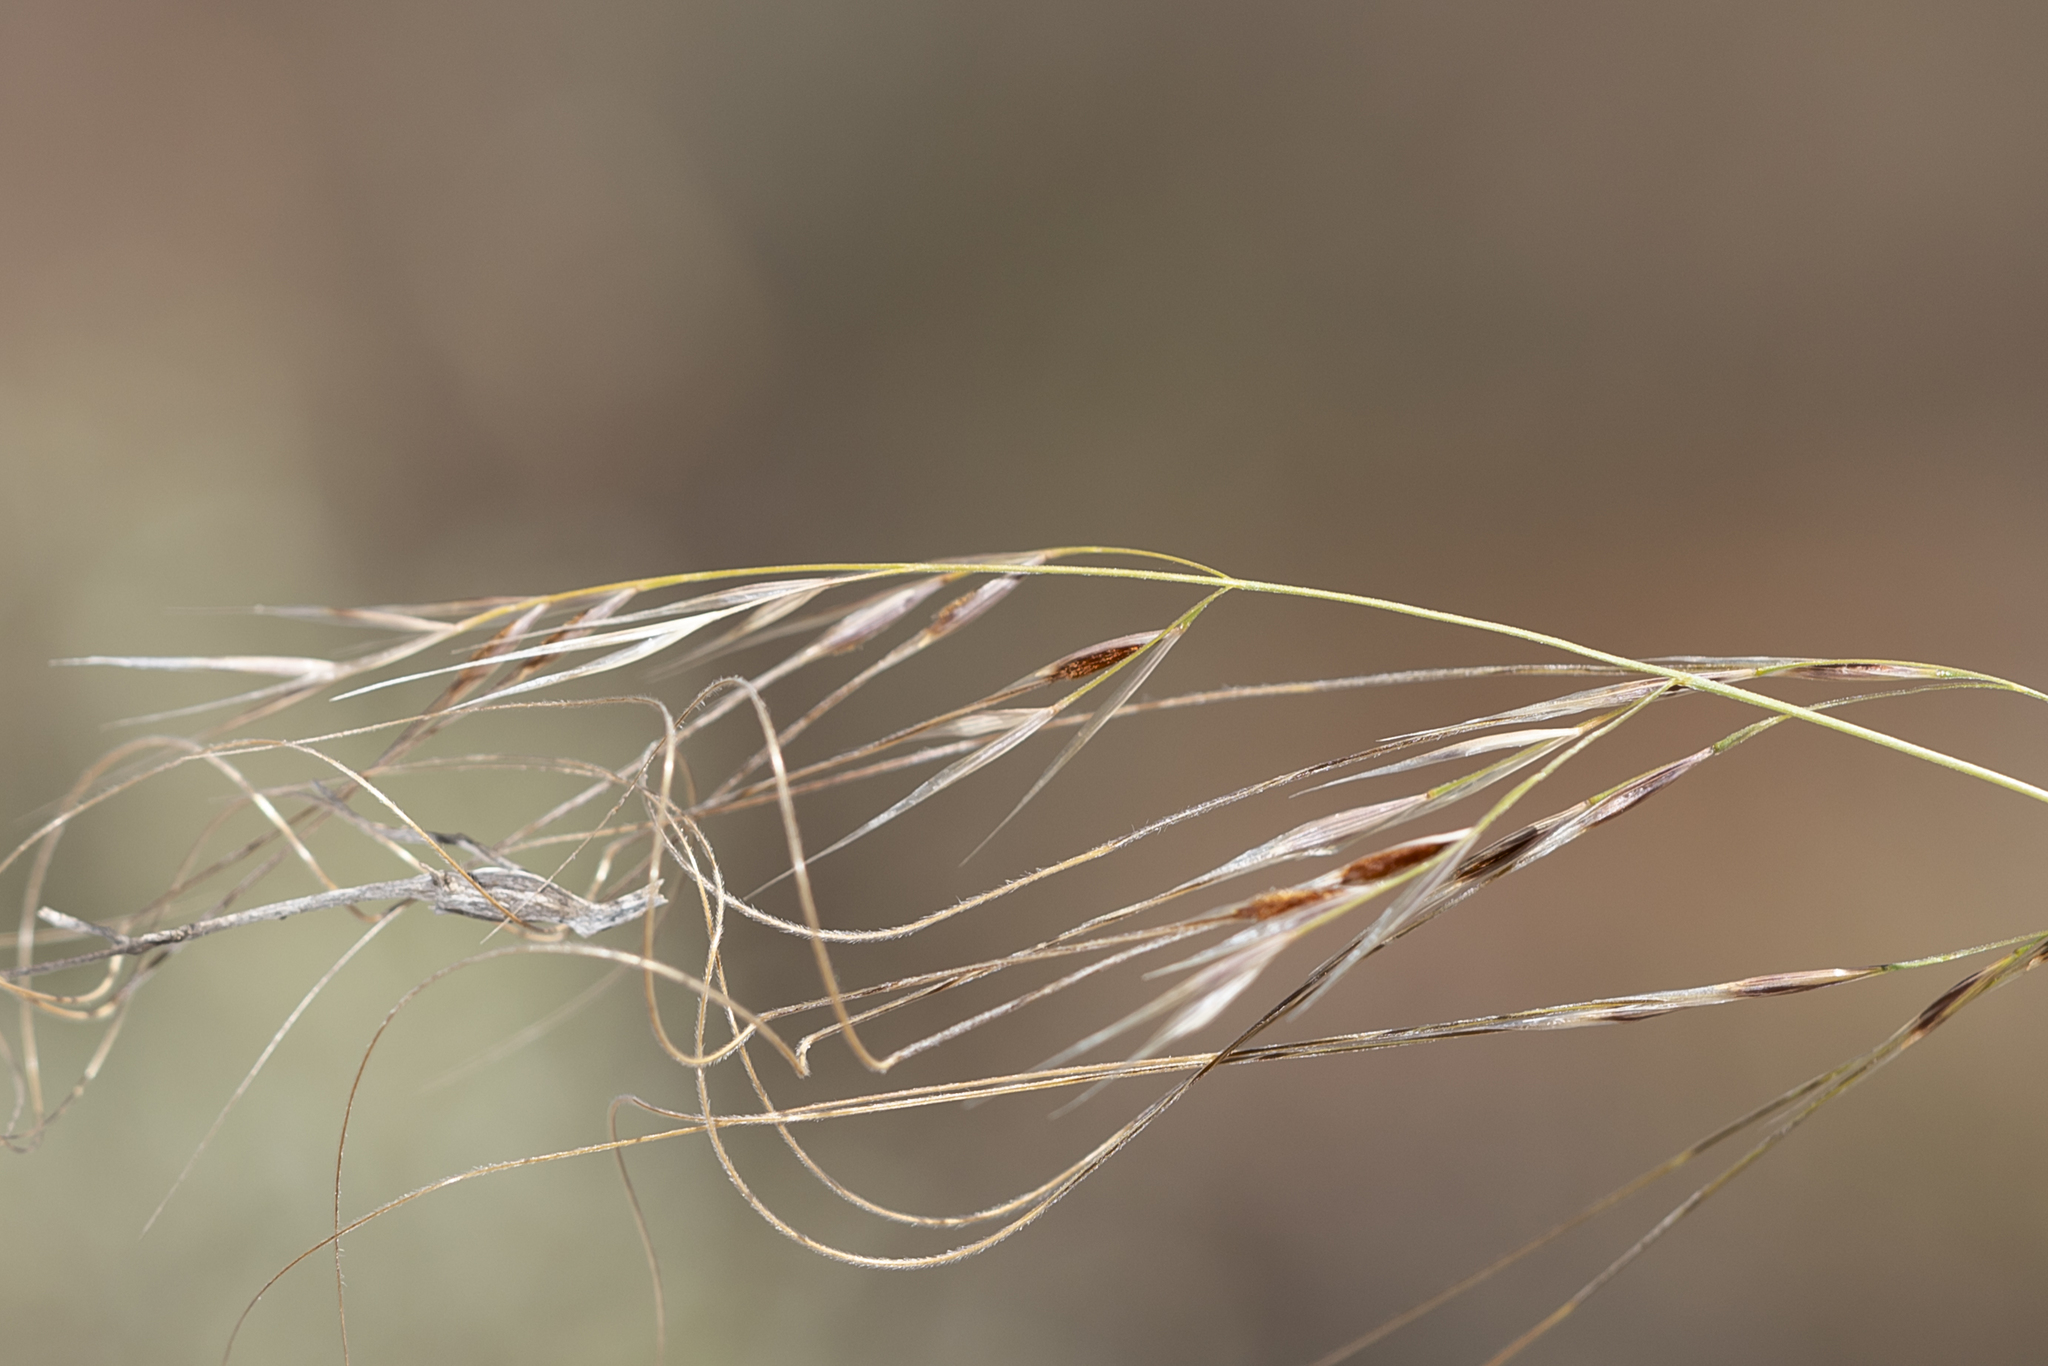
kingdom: Plantae
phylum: Tracheophyta
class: Liliopsida
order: Poales
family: Poaceae
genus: Austrostipa
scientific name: Austrostipa eremophila
